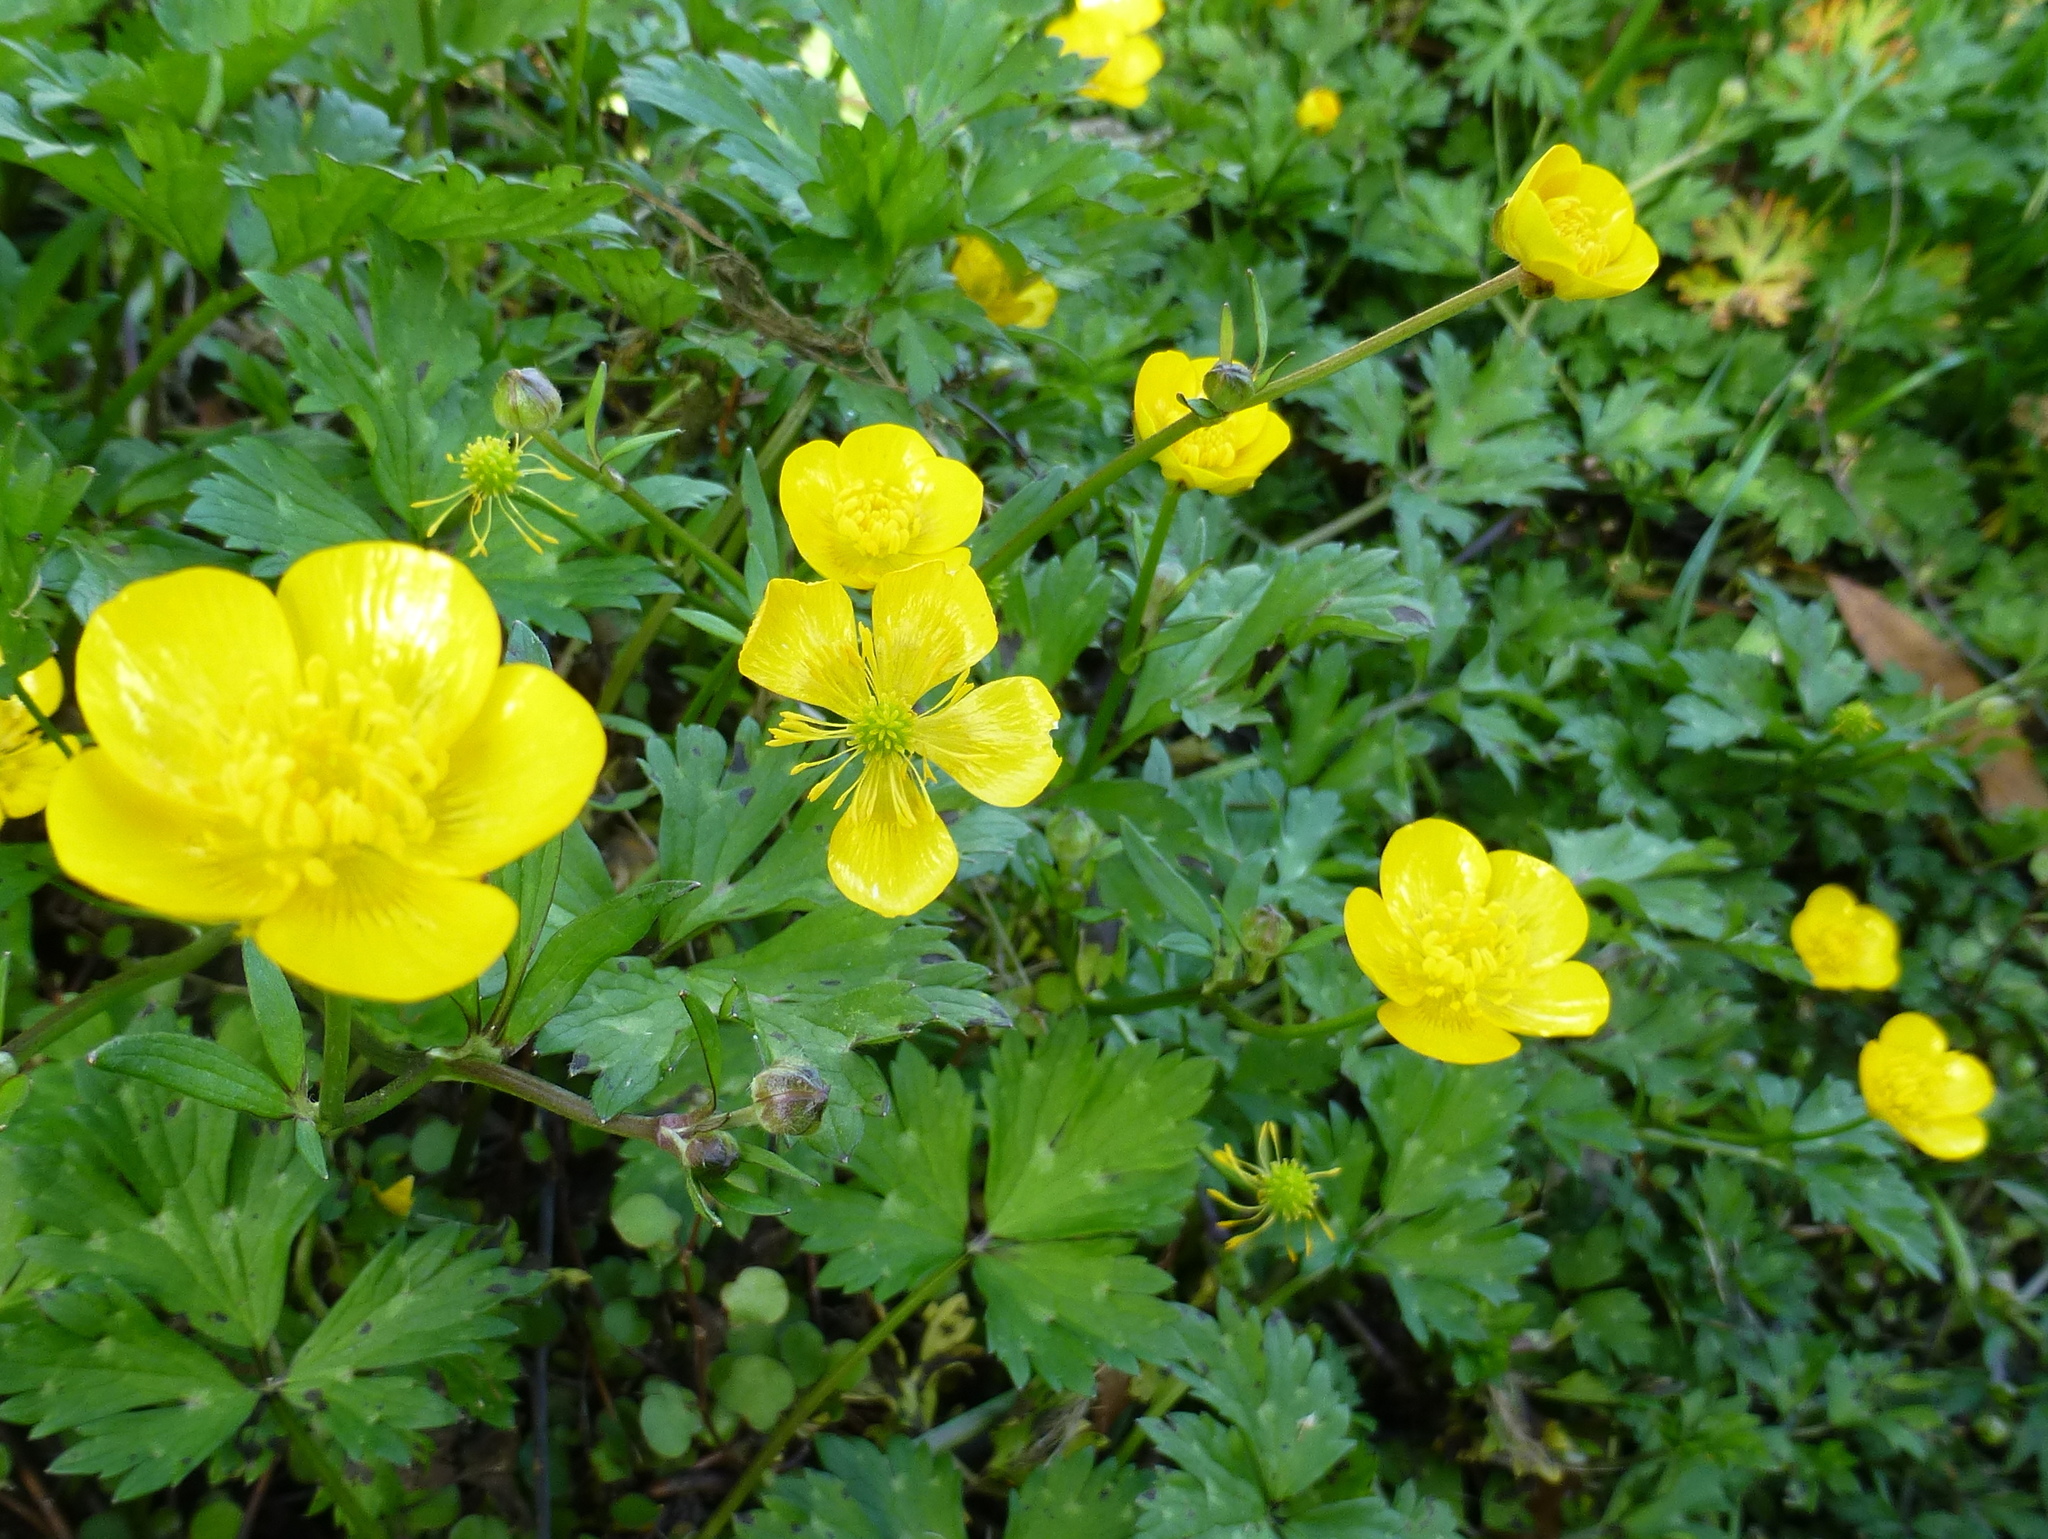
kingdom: Plantae
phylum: Tracheophyta
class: Magnoliopsida
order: Ranunculales
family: Ranunculaceae
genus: Ranunculus
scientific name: Ranunculus repens
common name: Creeping buttercup
